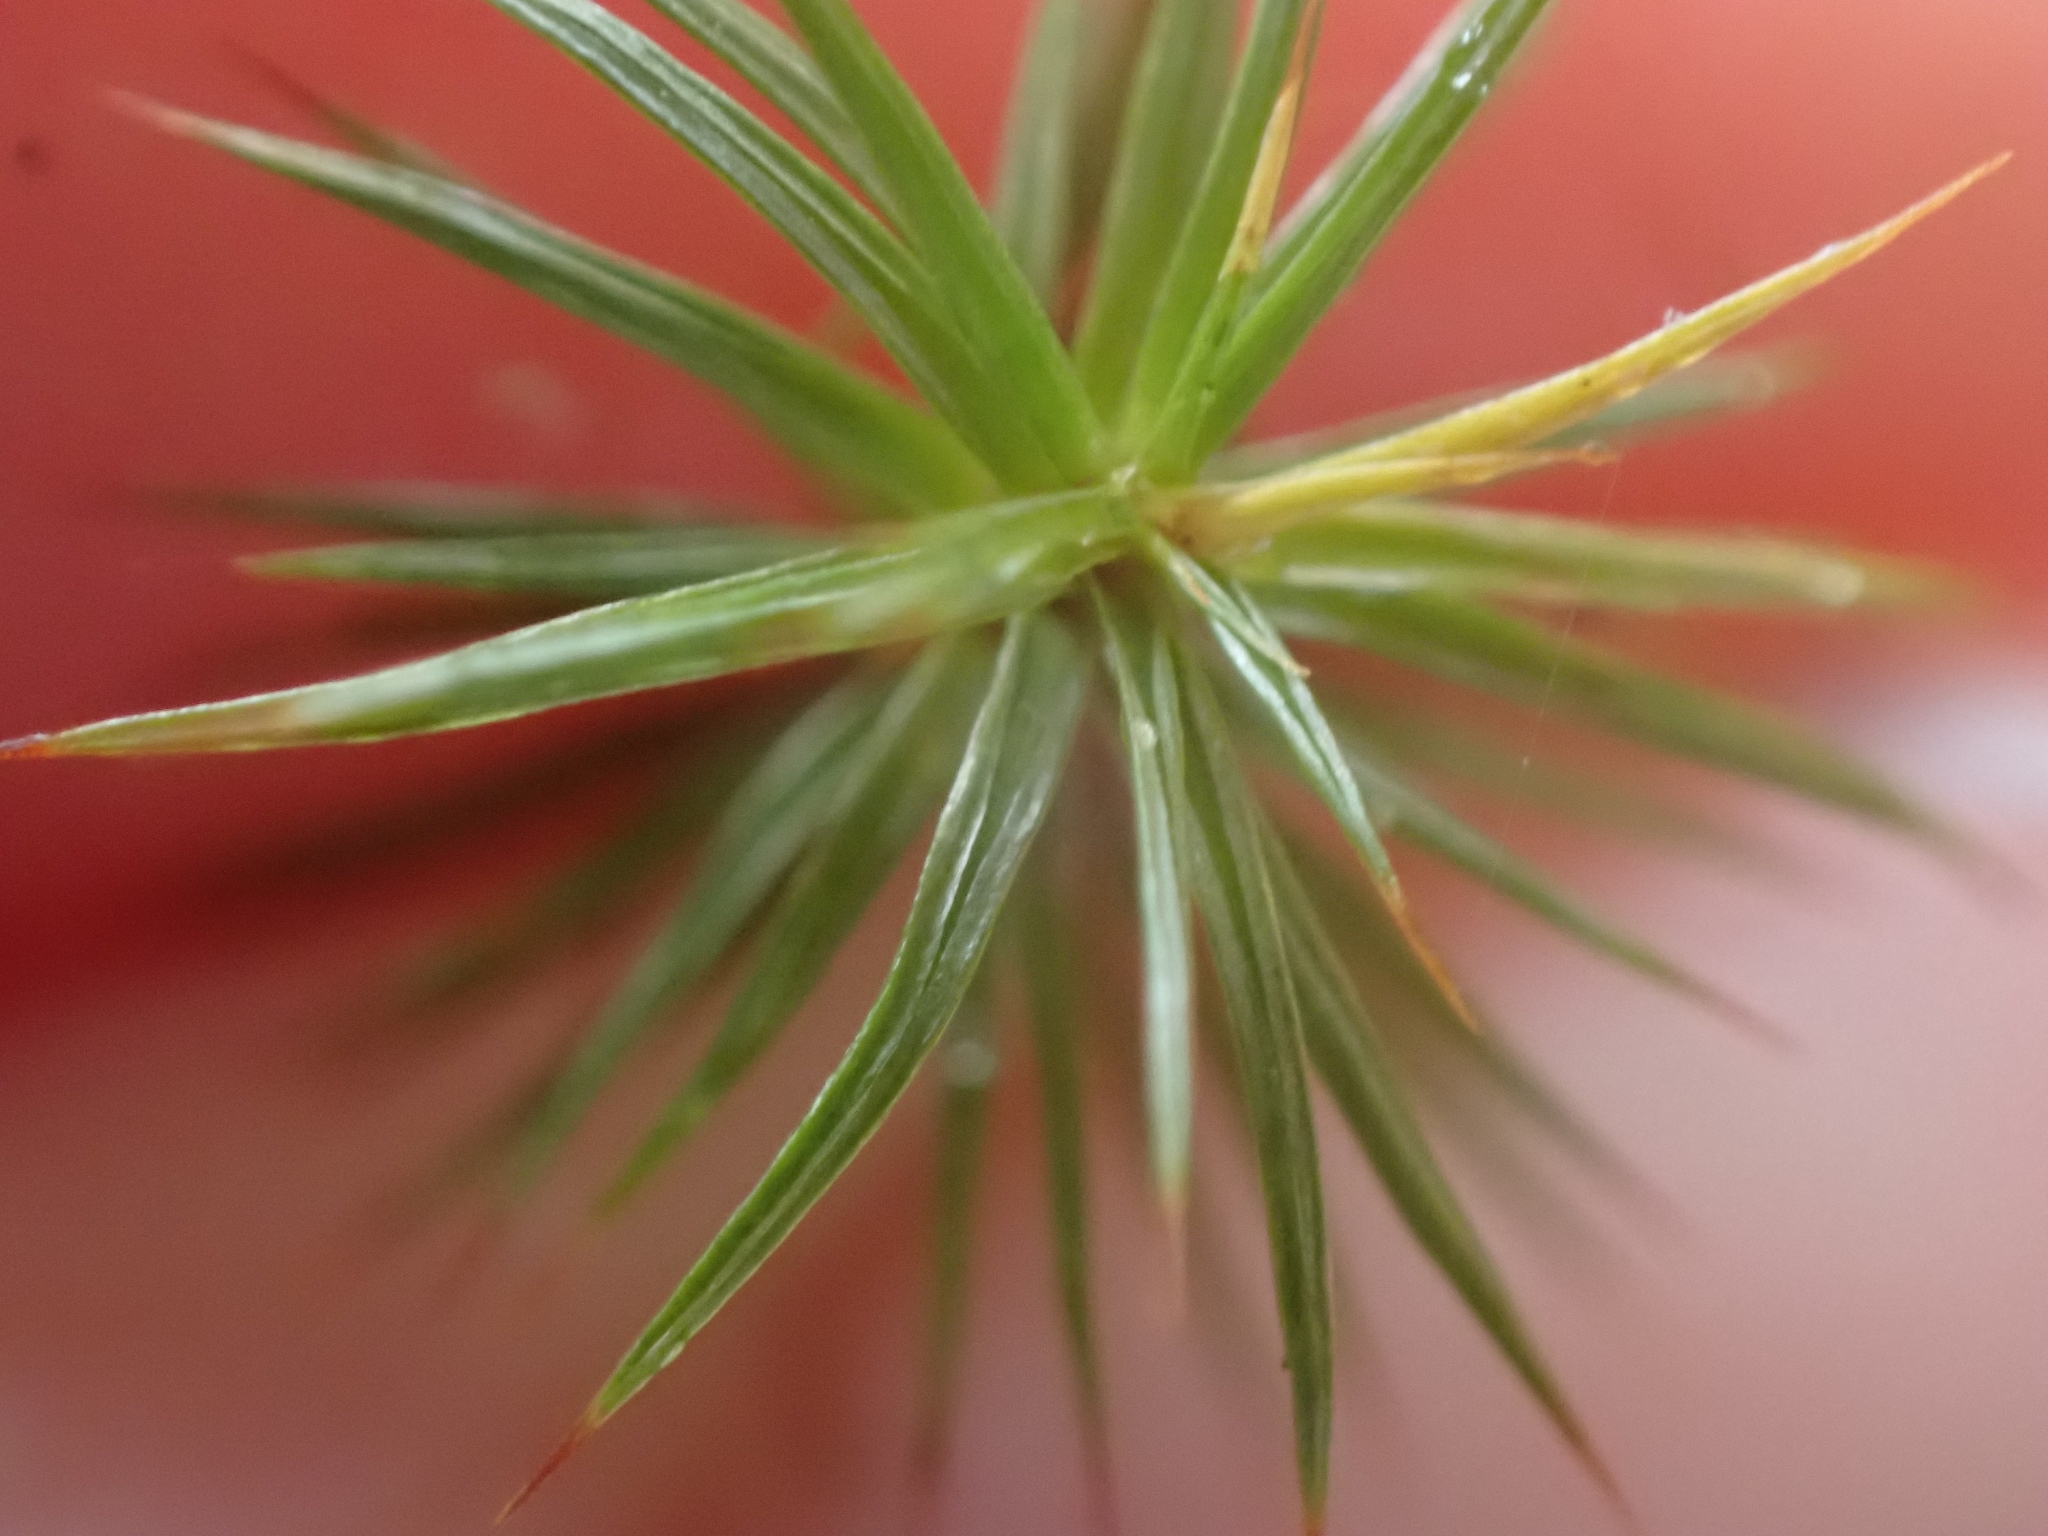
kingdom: Plantae
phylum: Bryophyta
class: Polytrichopsida
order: Polytrichales
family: Polytrichaceae
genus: Polytrichum
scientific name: Polytrichum juniperinum
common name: Juniper haircap moss
